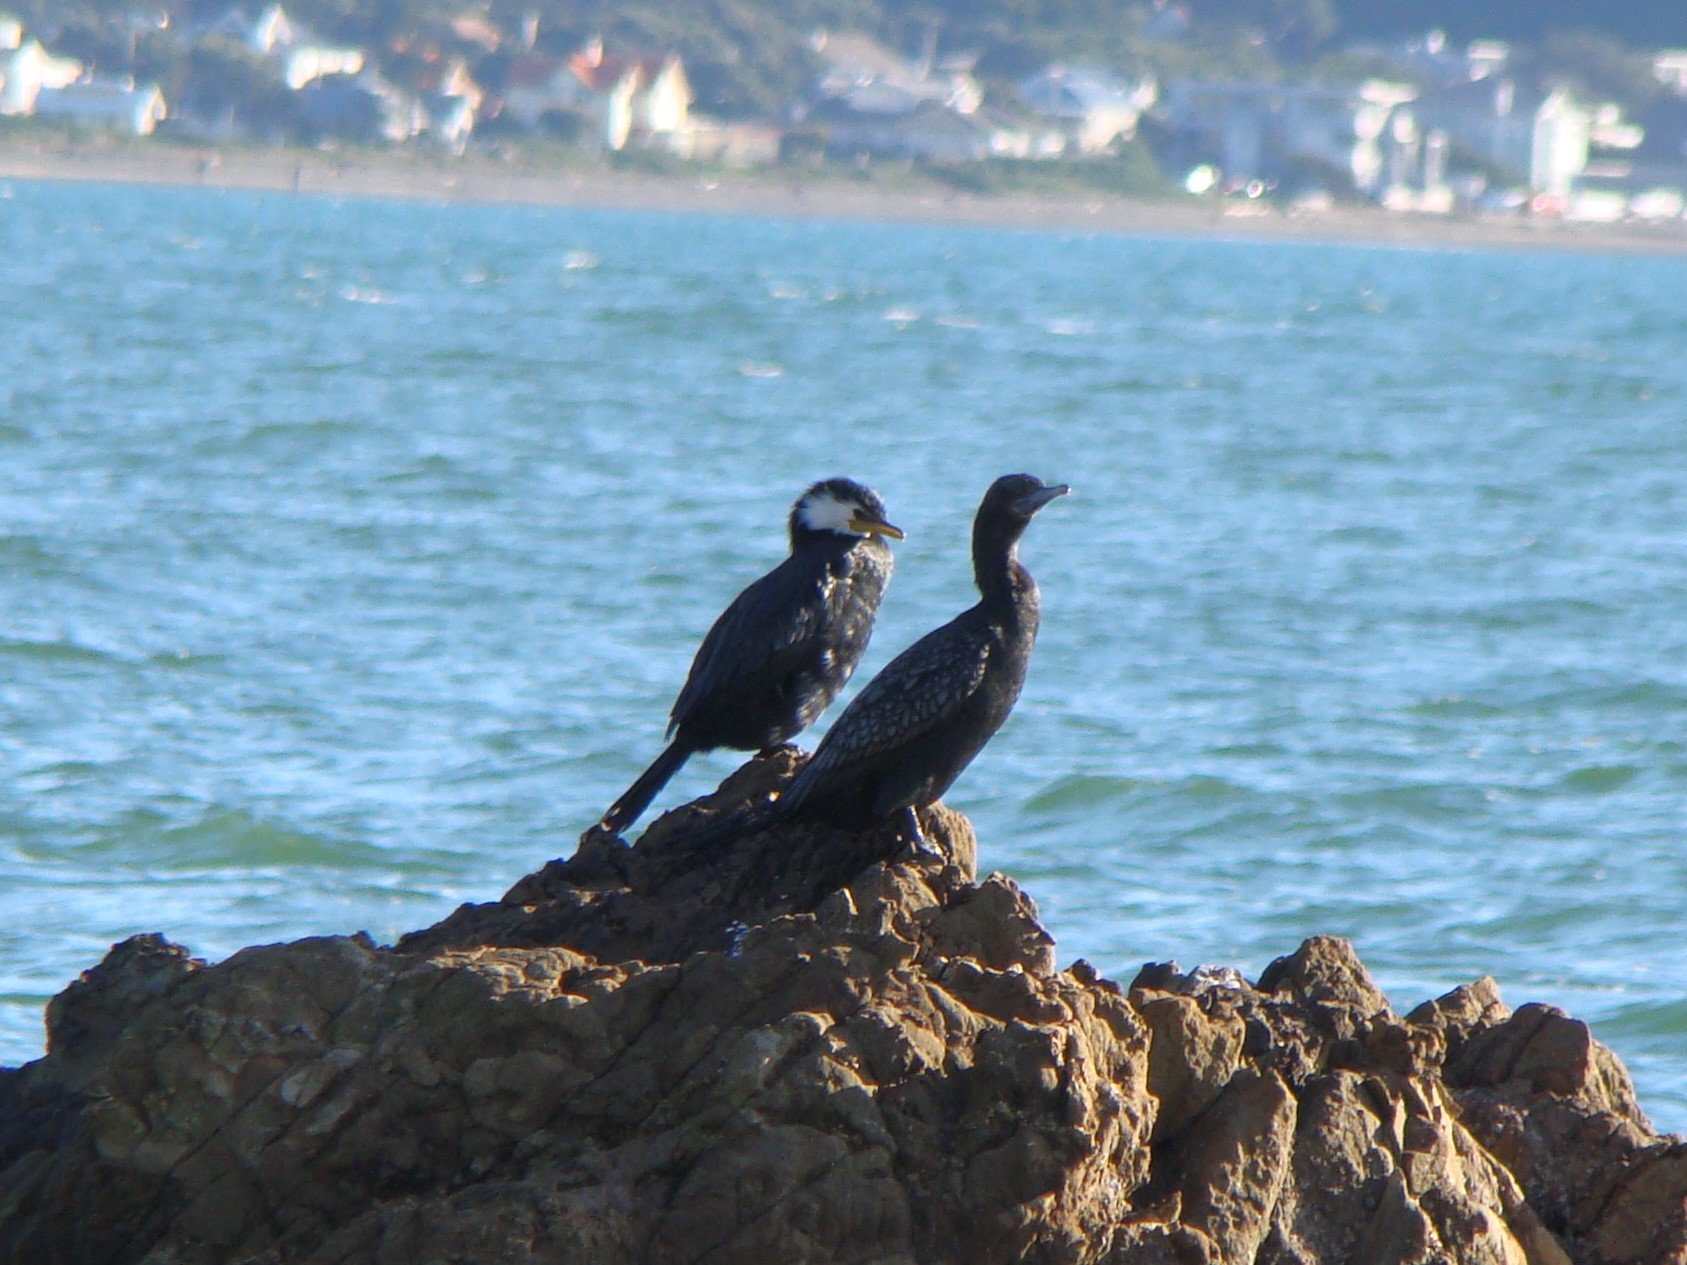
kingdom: Animalia
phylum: Chordata
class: Aves
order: Suliformes
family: Phalacrocoracidae
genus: Microcarbo
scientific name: Microcarbo melanoleucos
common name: Little pied cormorant
